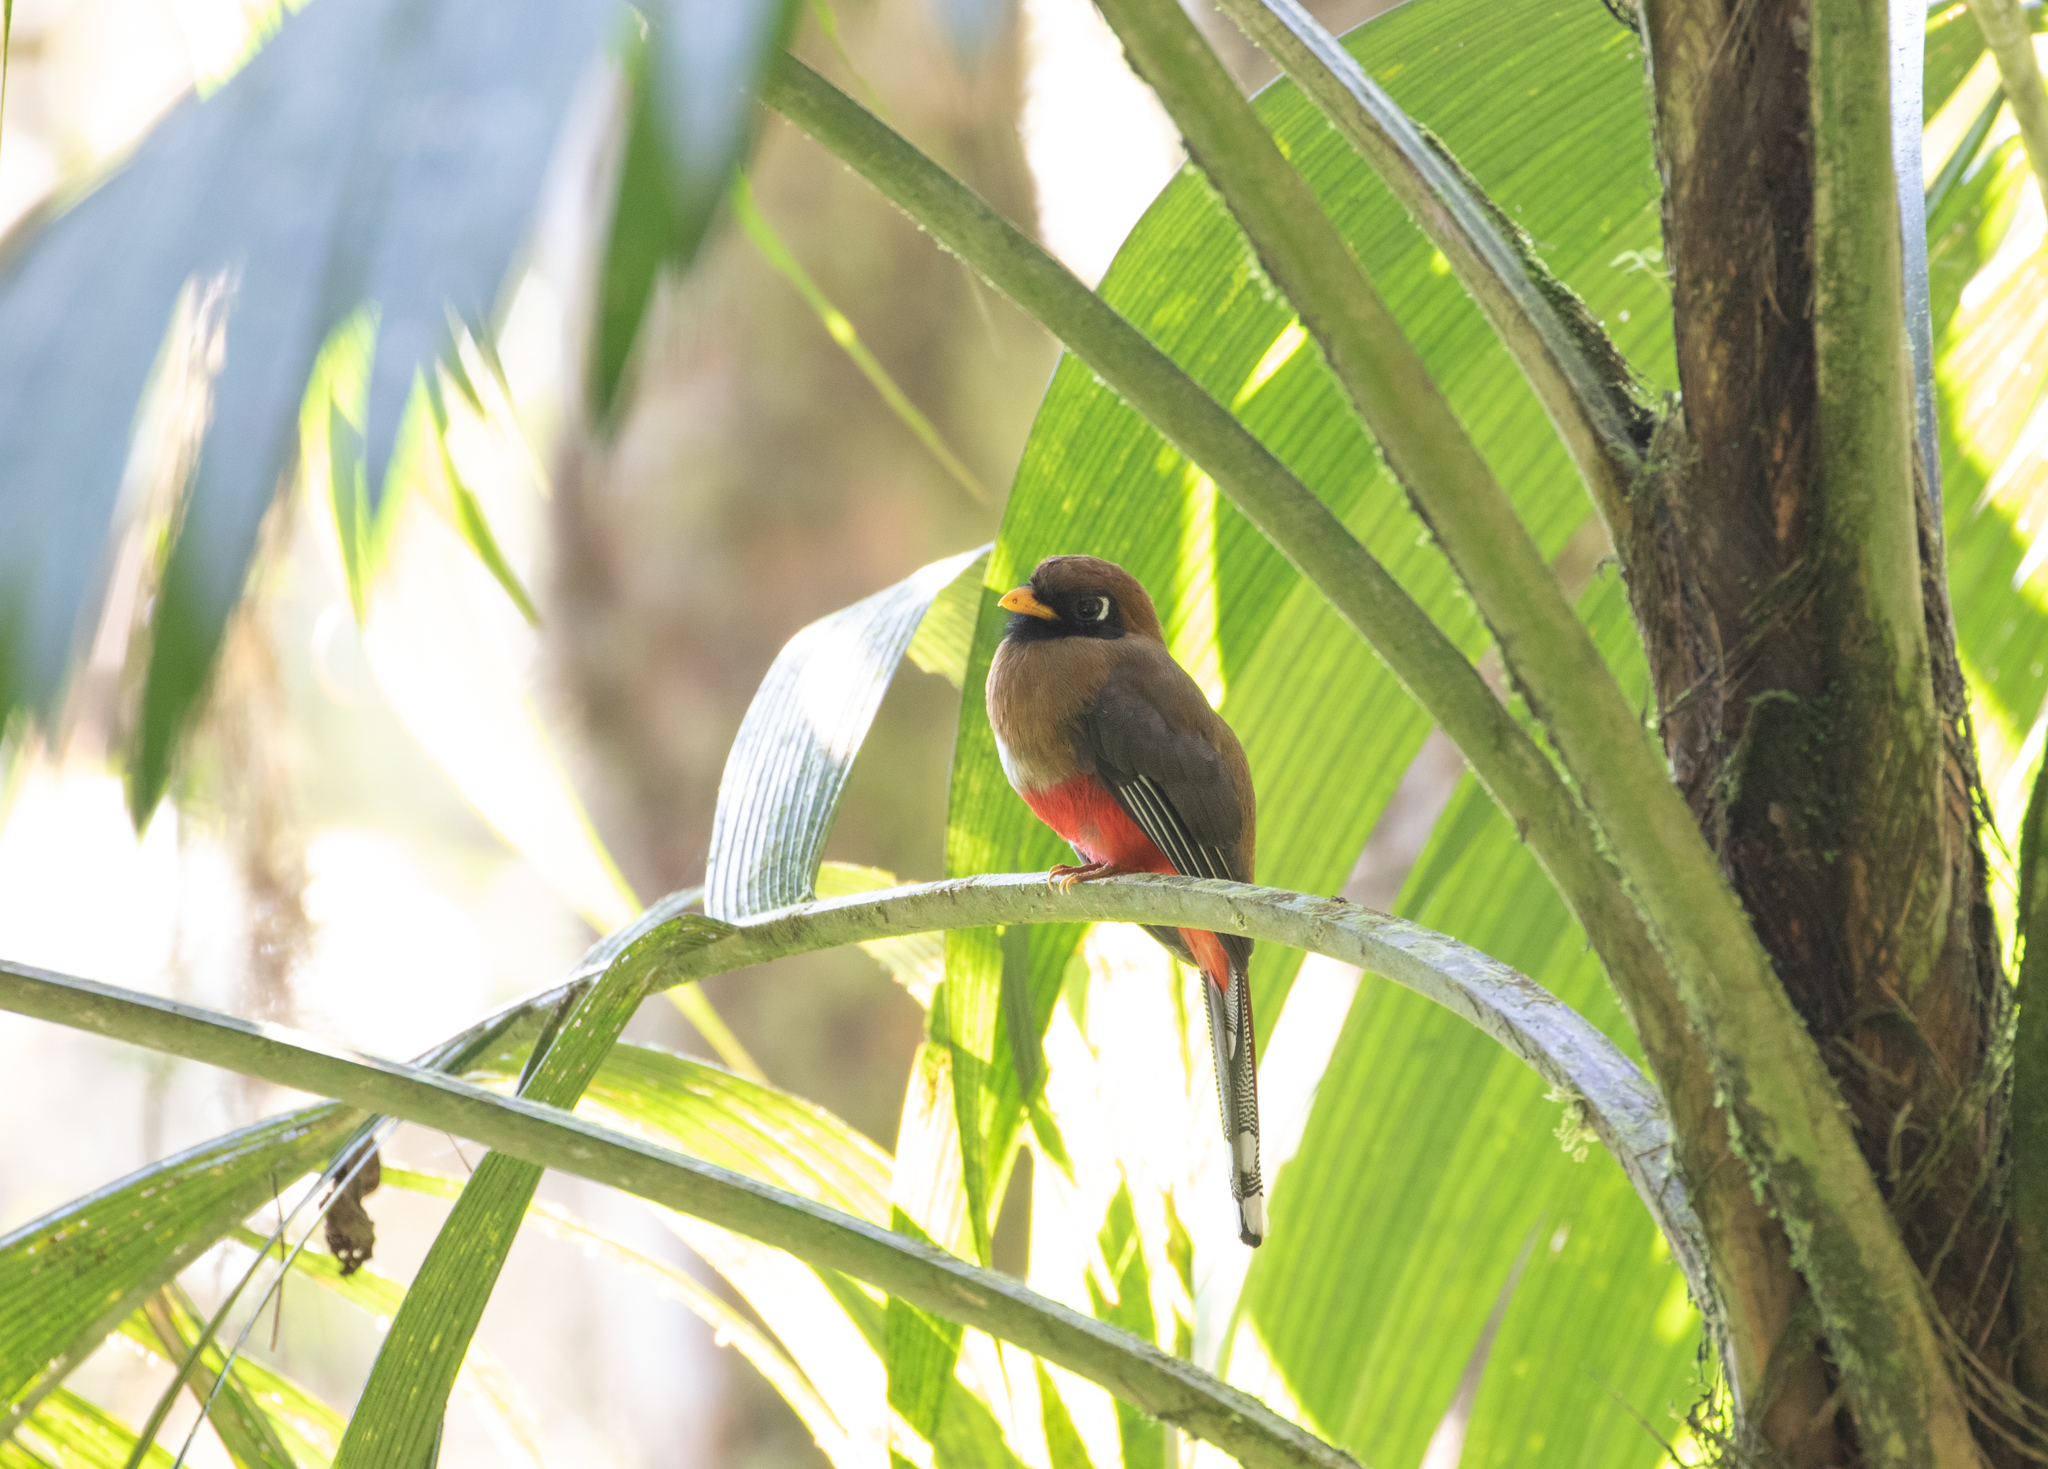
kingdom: Animalia
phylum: Chordata
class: Aves
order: Trogoniformes
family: Trogonidae
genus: Trogon
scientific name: Trogon personatus
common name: Masked trogon
